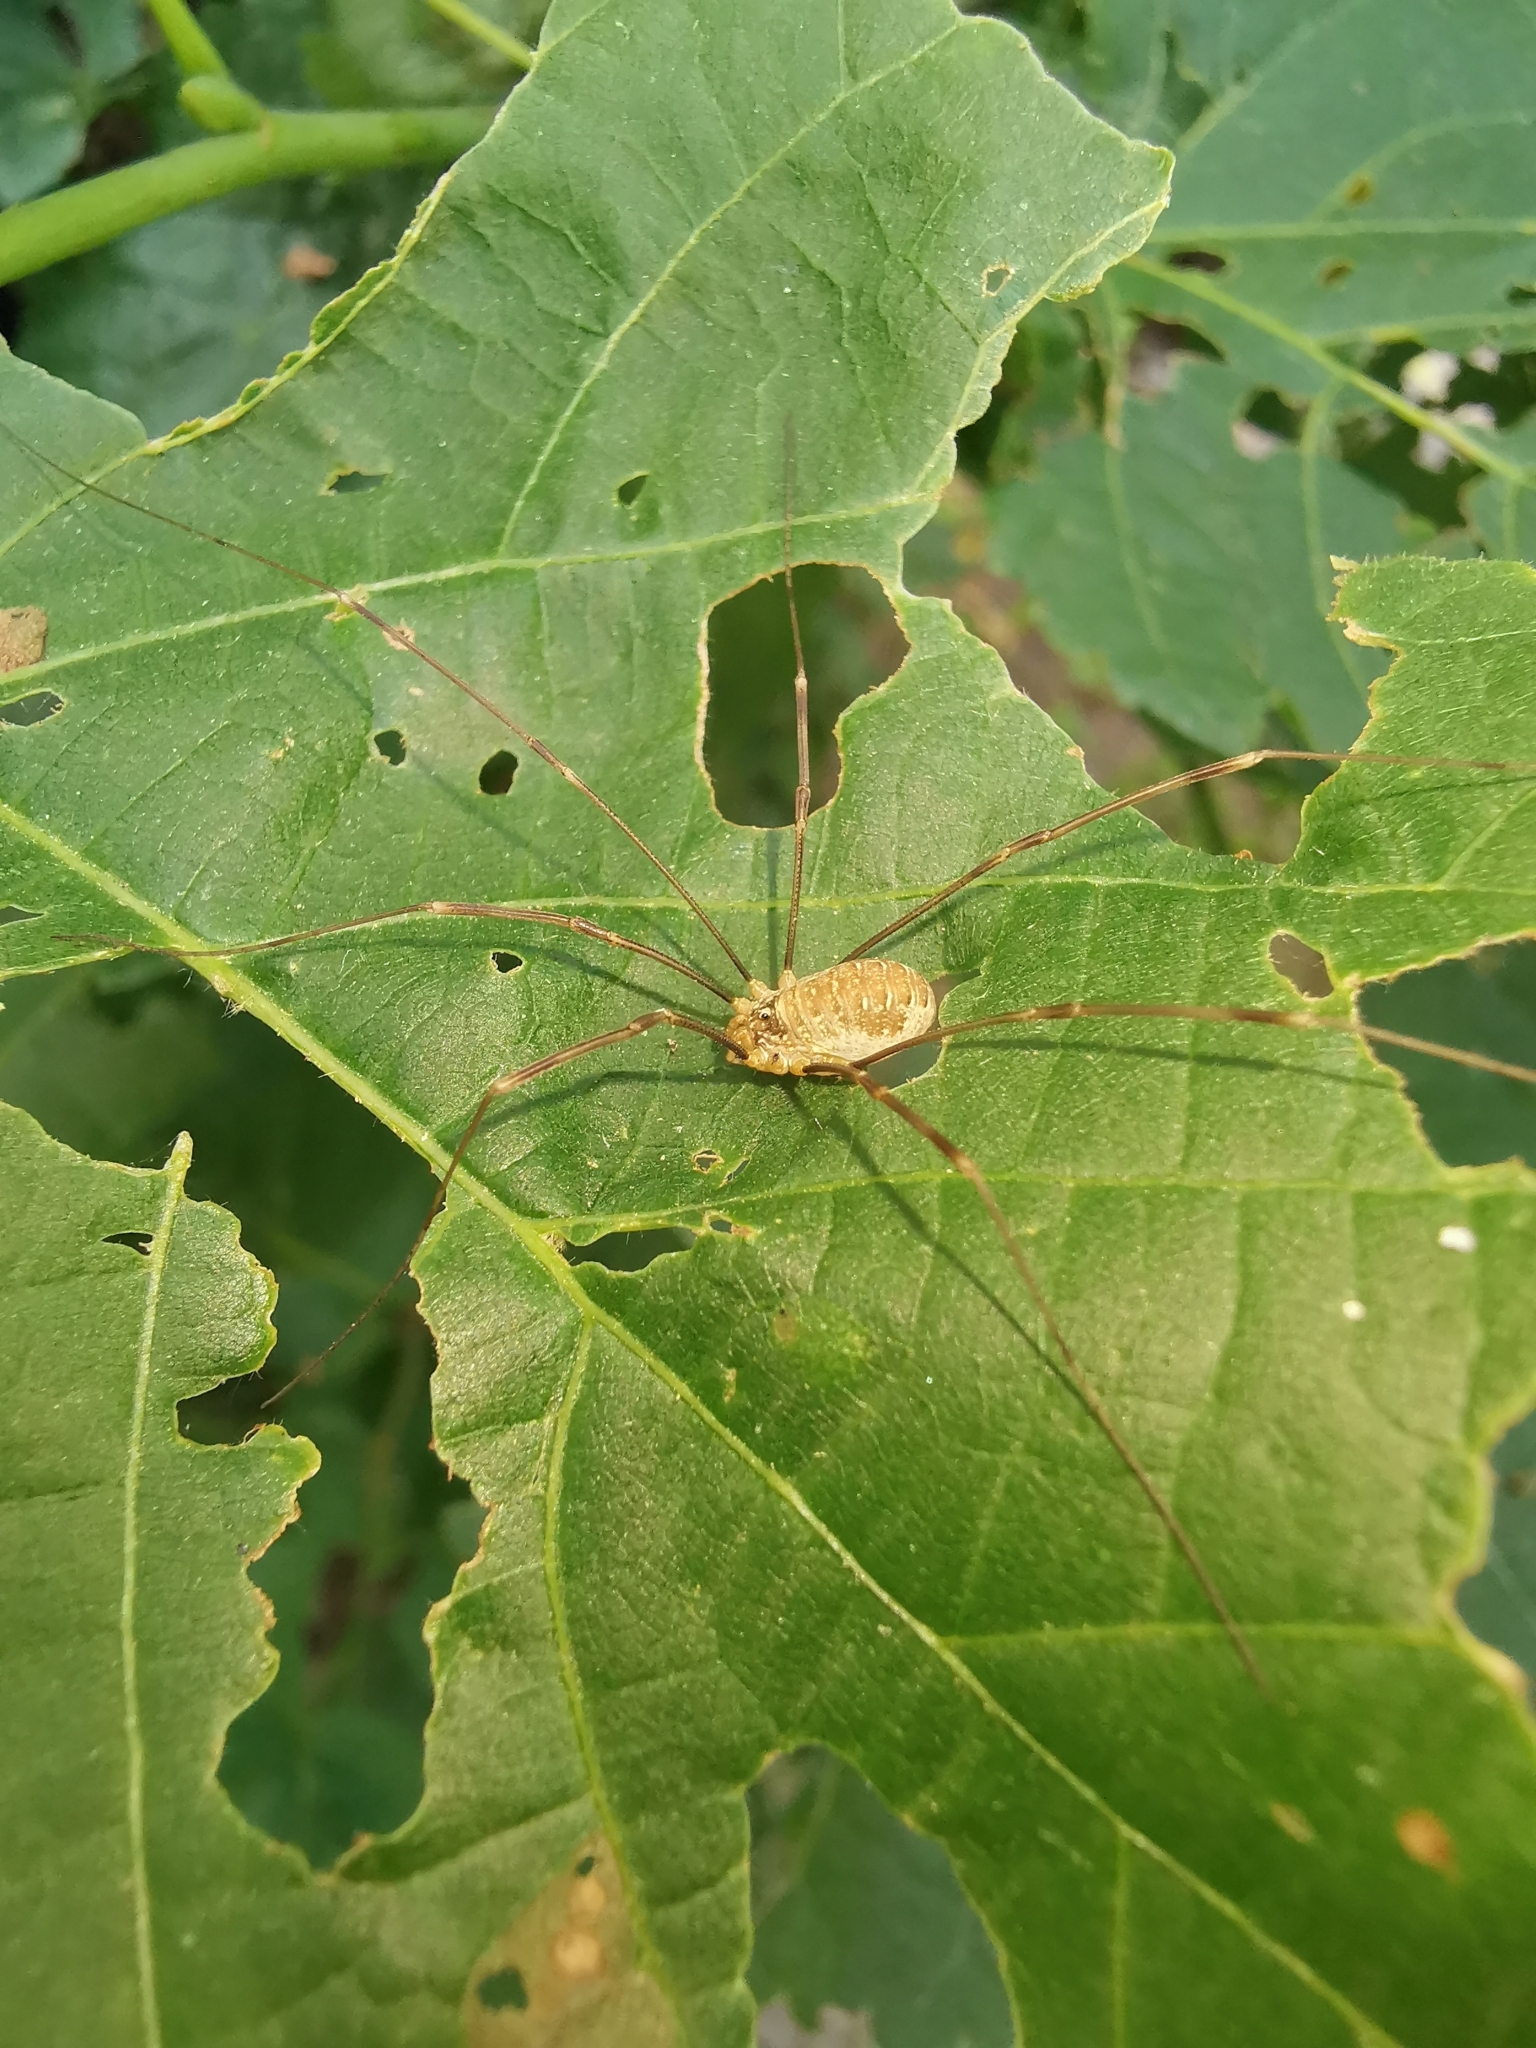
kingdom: Animalia
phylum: Arthropoda
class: Arachnida
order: Opiliones
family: Phalangiidae
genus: Opilio
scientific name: Opilio canestrinii
